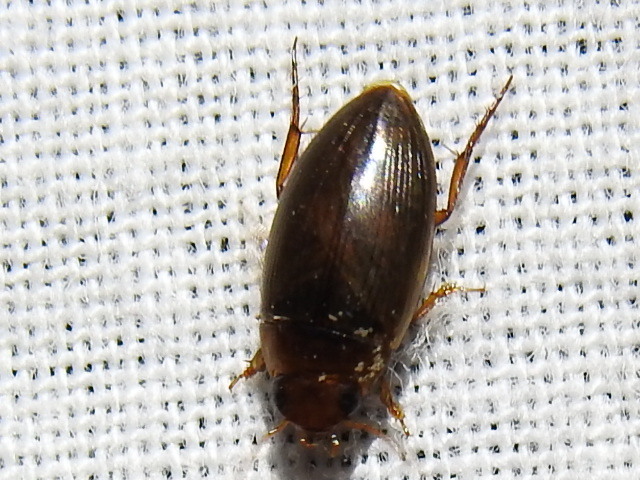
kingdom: Animalia
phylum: Arthropoda
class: Insecta
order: Coleoptera
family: Dytiscidae
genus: Copelatus
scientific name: Copelatus chevrolati
